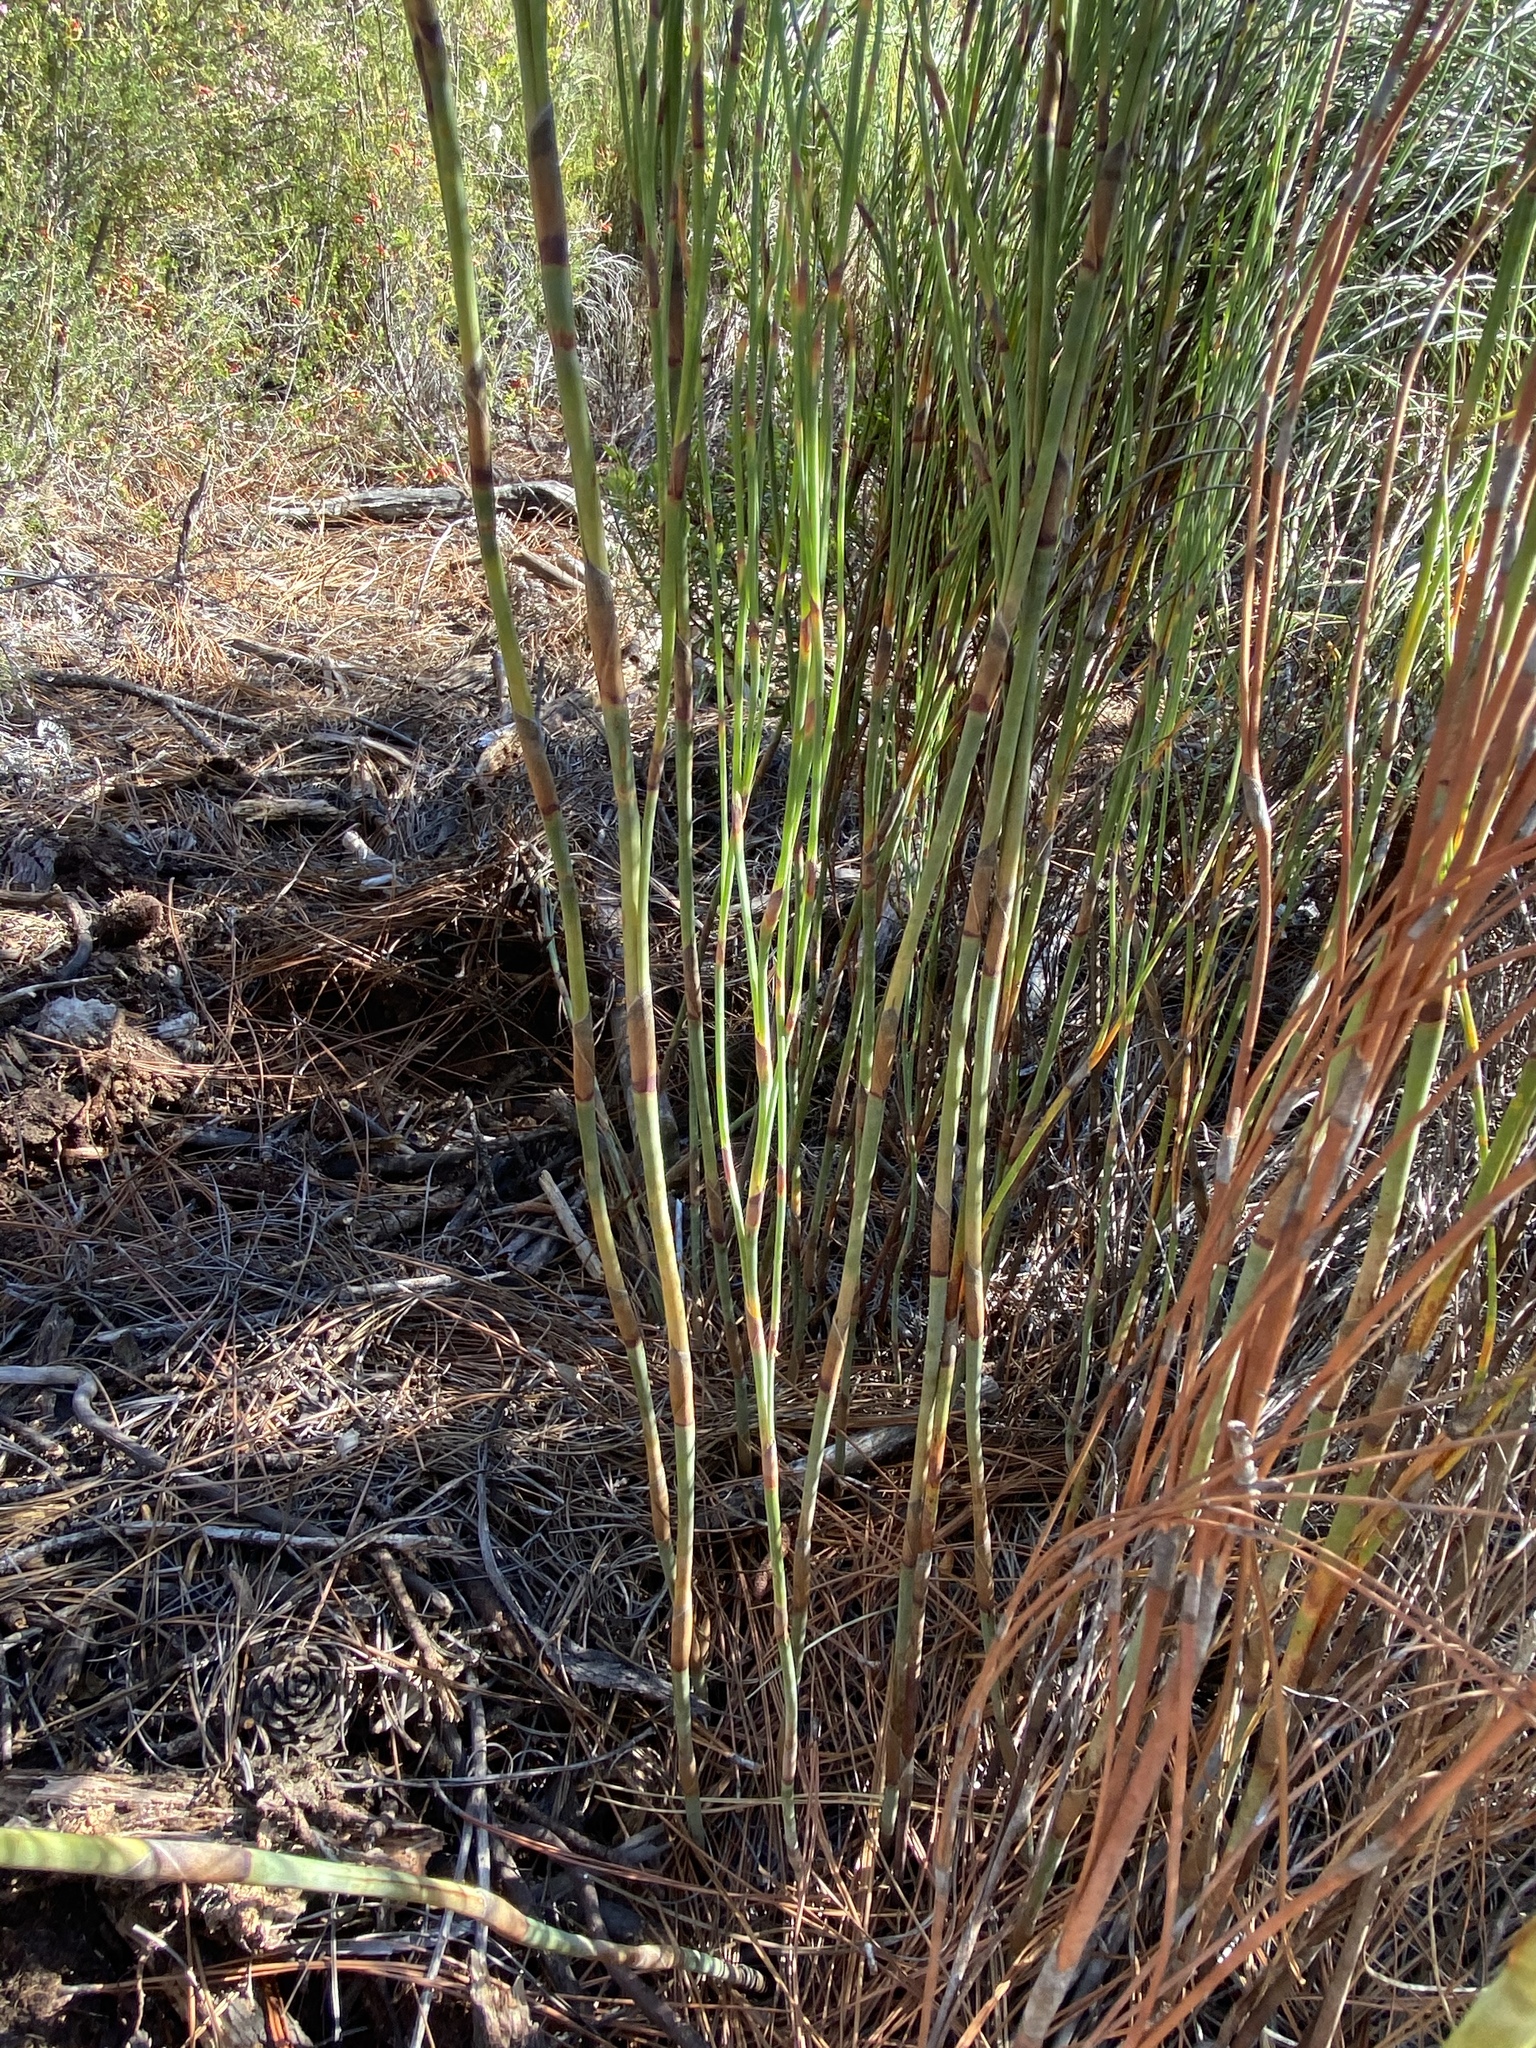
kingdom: Plantae
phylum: Tracheophyta
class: Liliopsida
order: Poales
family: Restionaceae
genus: Cannomois
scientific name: Cannomois virgata
